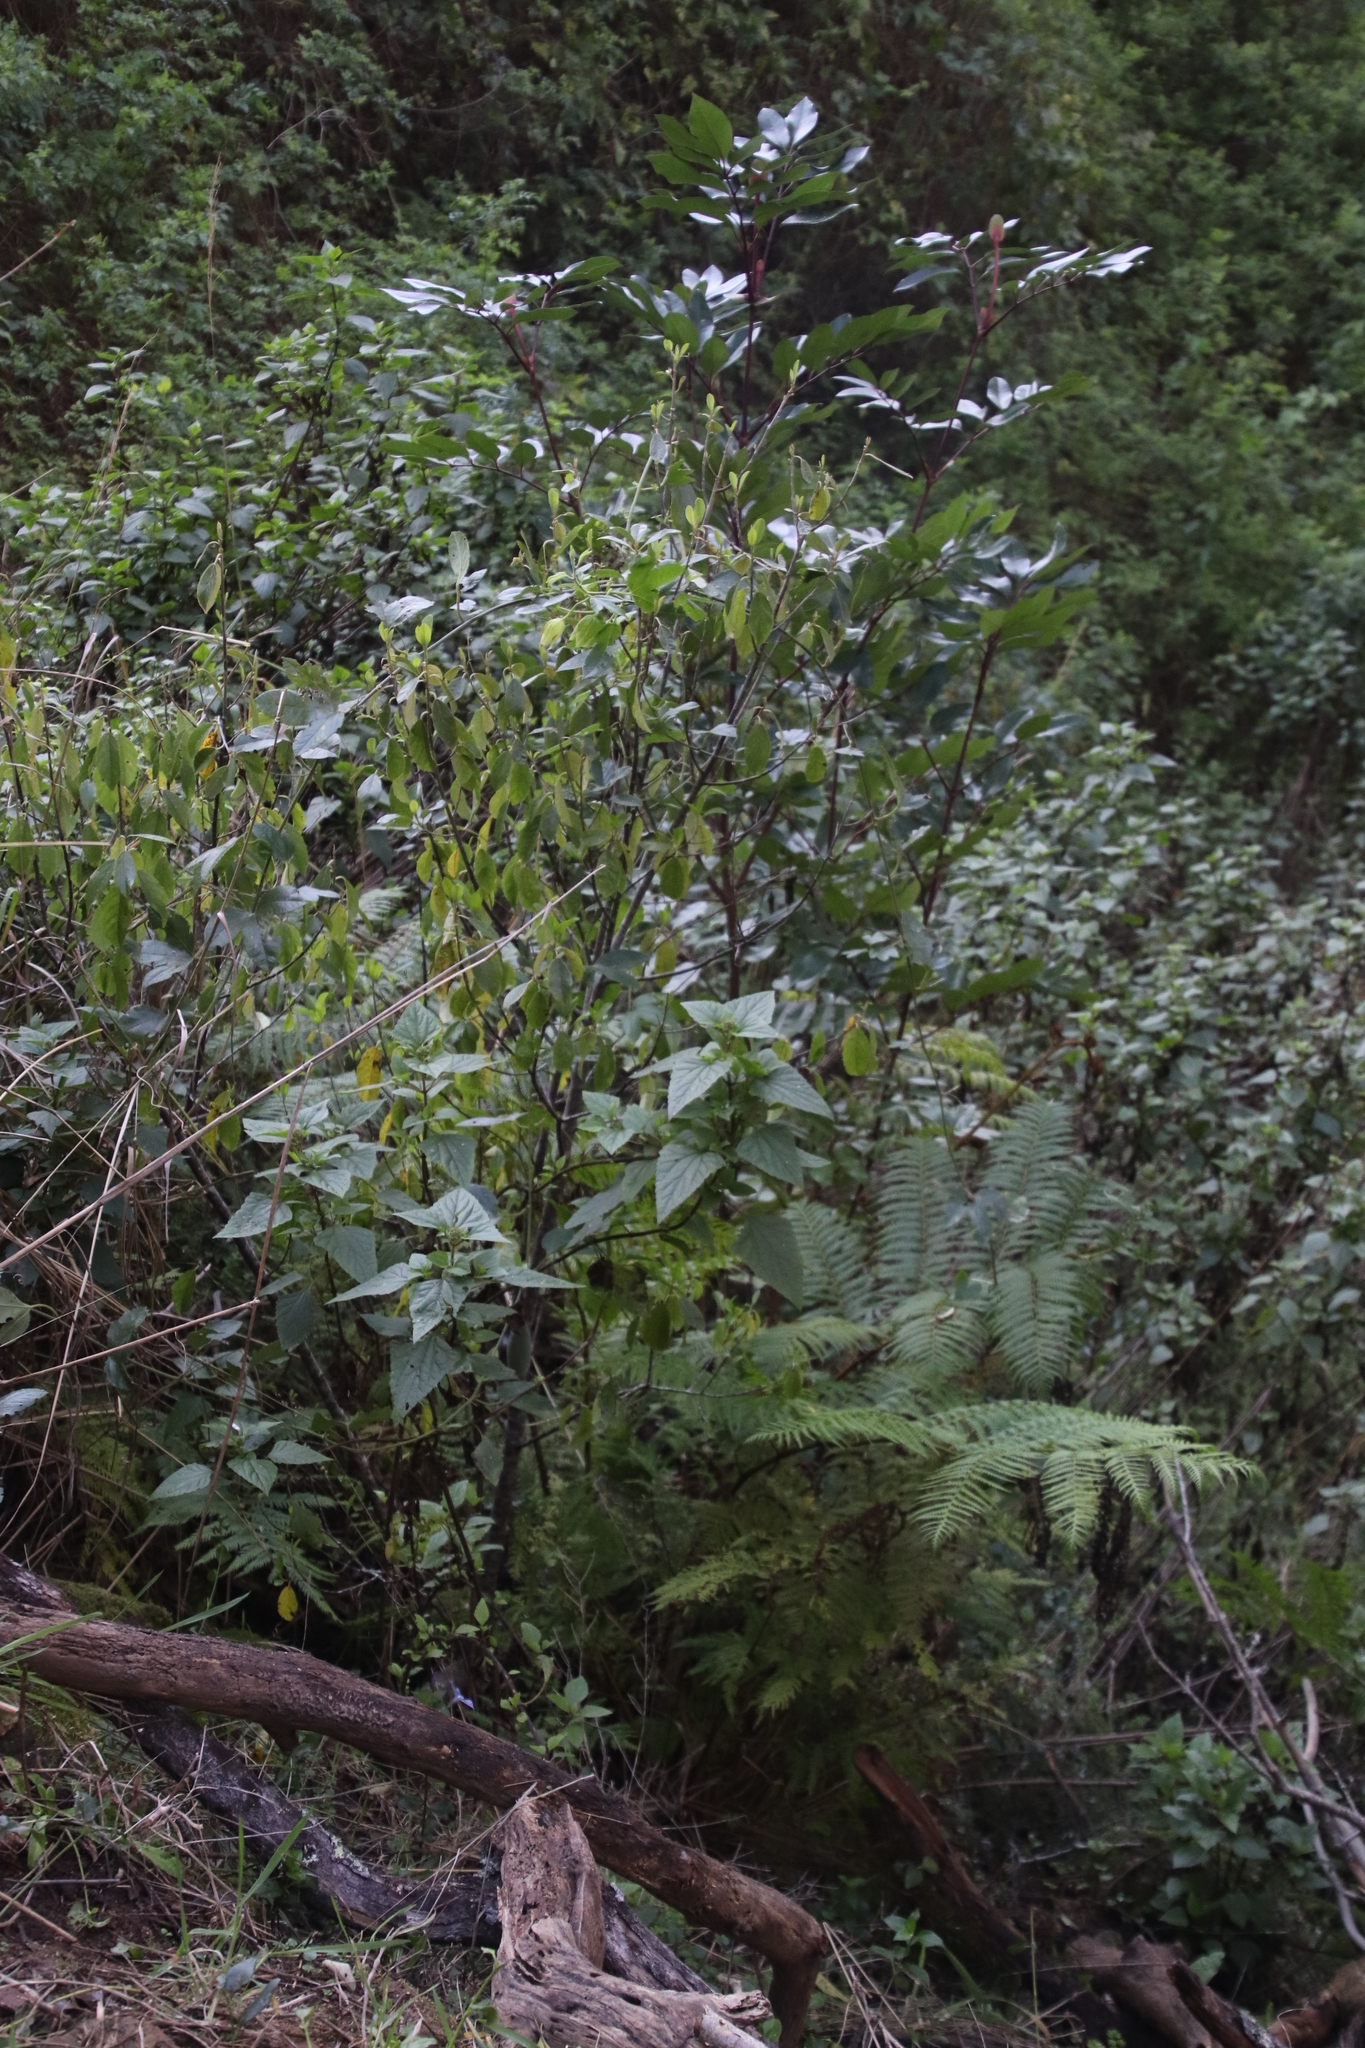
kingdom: Plantae
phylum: Tracheophyta
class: Magnoliopsida
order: Asterales
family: Asteraceae
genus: Ageratina
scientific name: Ageratina adenophora
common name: Sticky snakeroot
